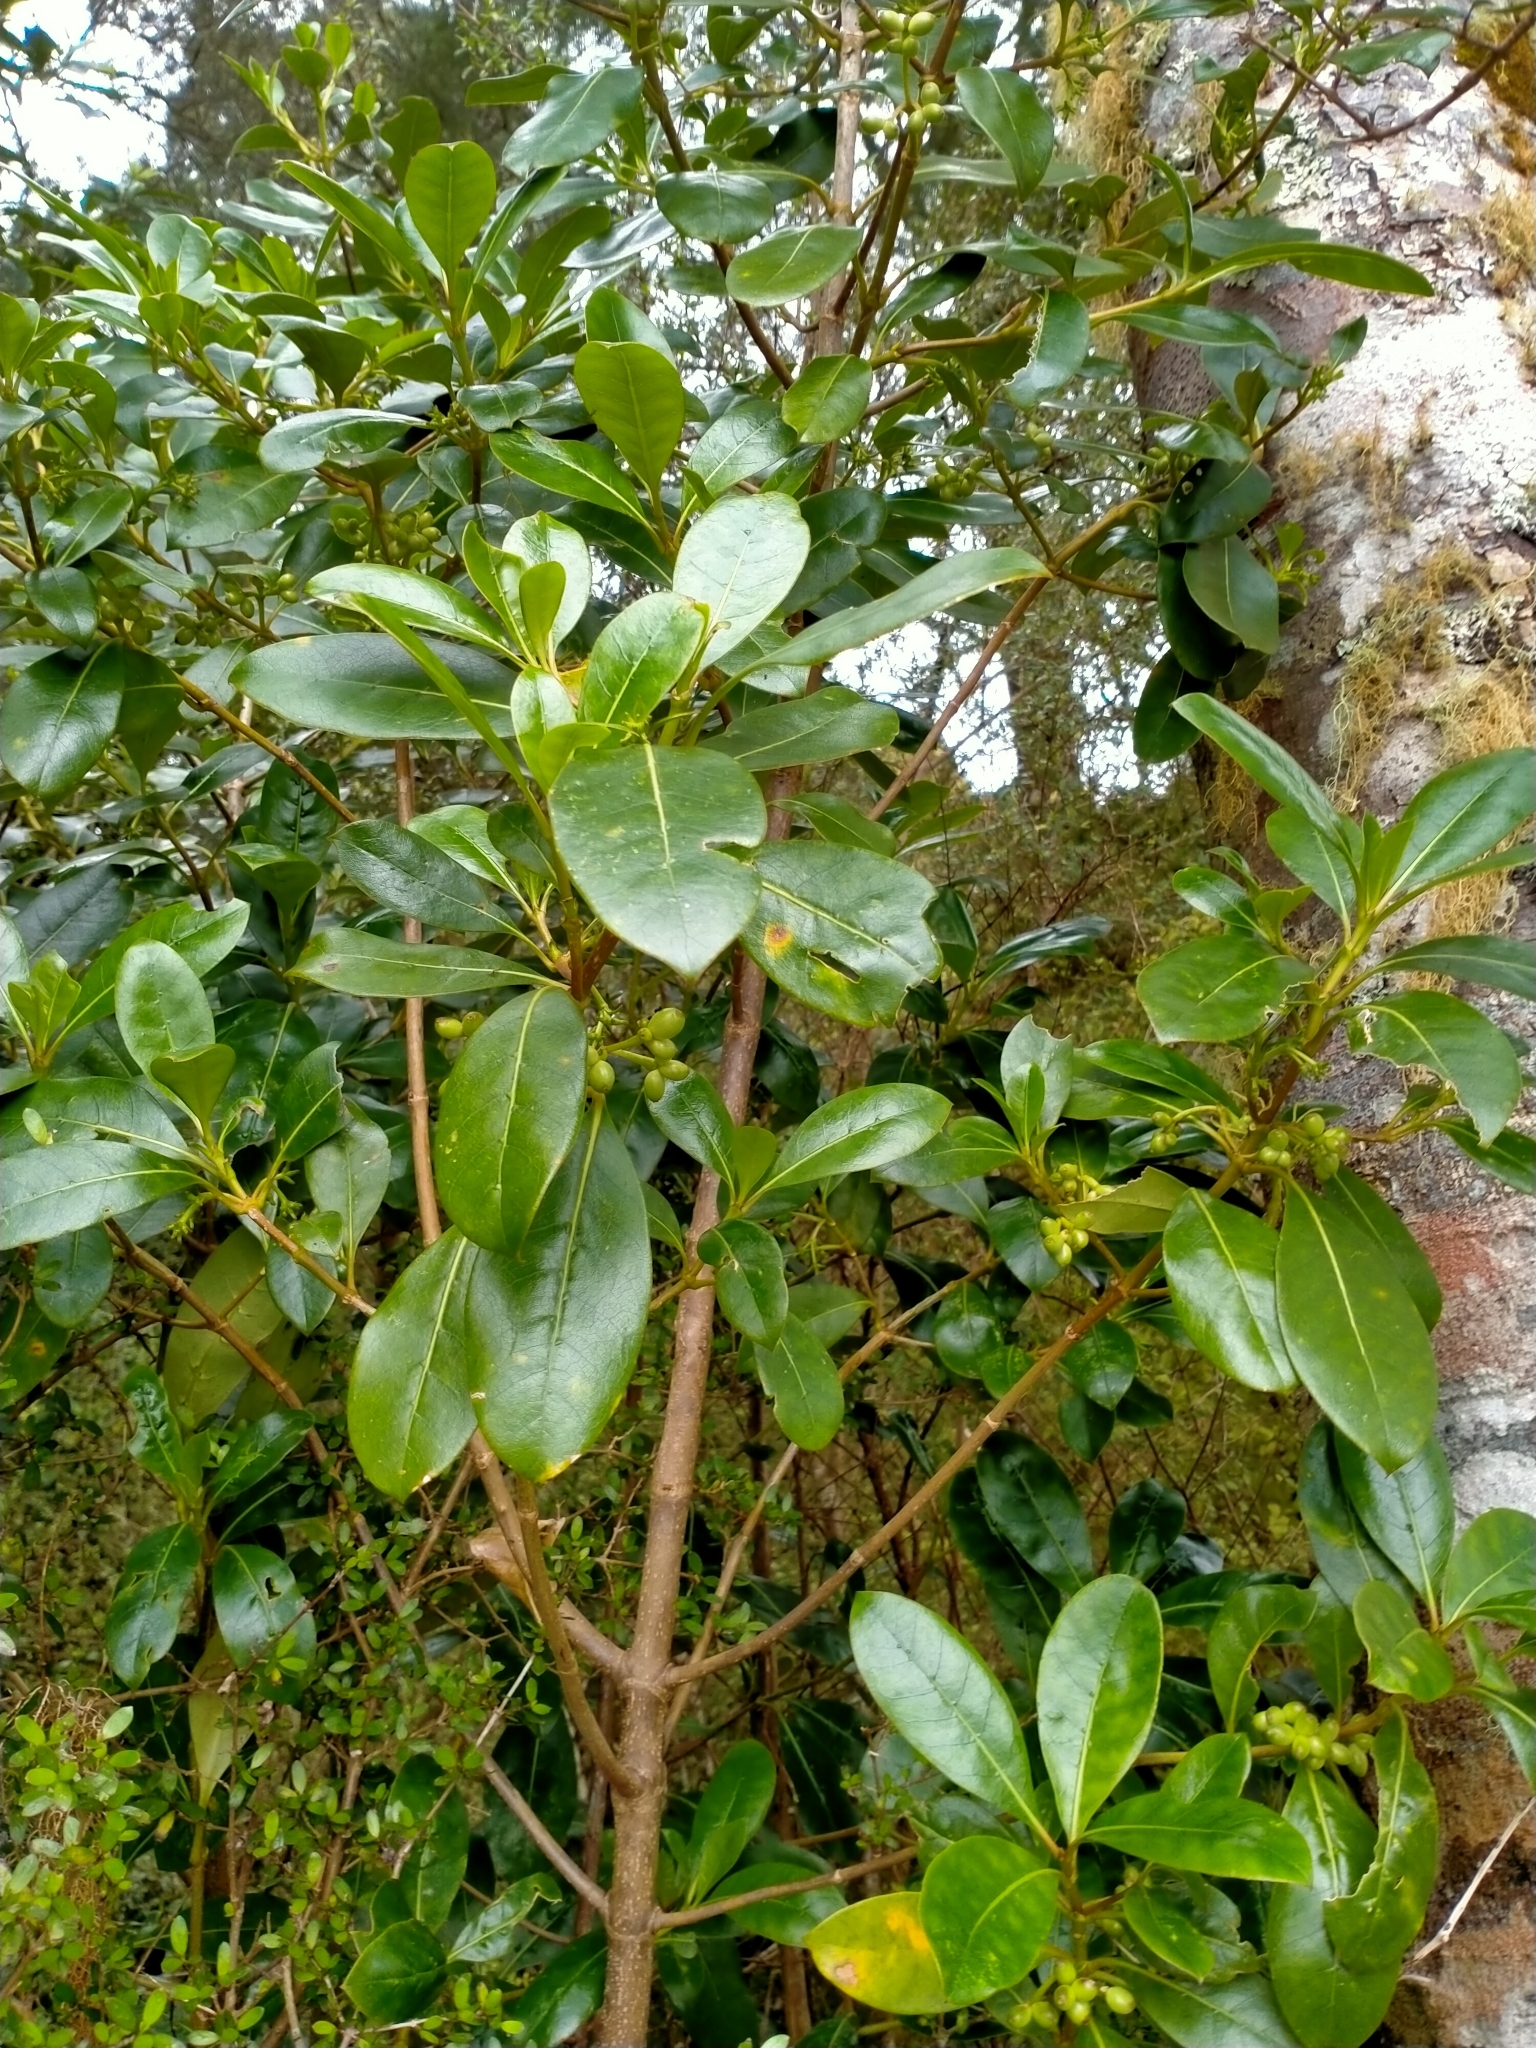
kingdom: Plantae
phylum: Tracheophyta
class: Magnoliopsida
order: Gentianales
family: Rubiaceae
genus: Coprosma
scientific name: Coprosma lucida
